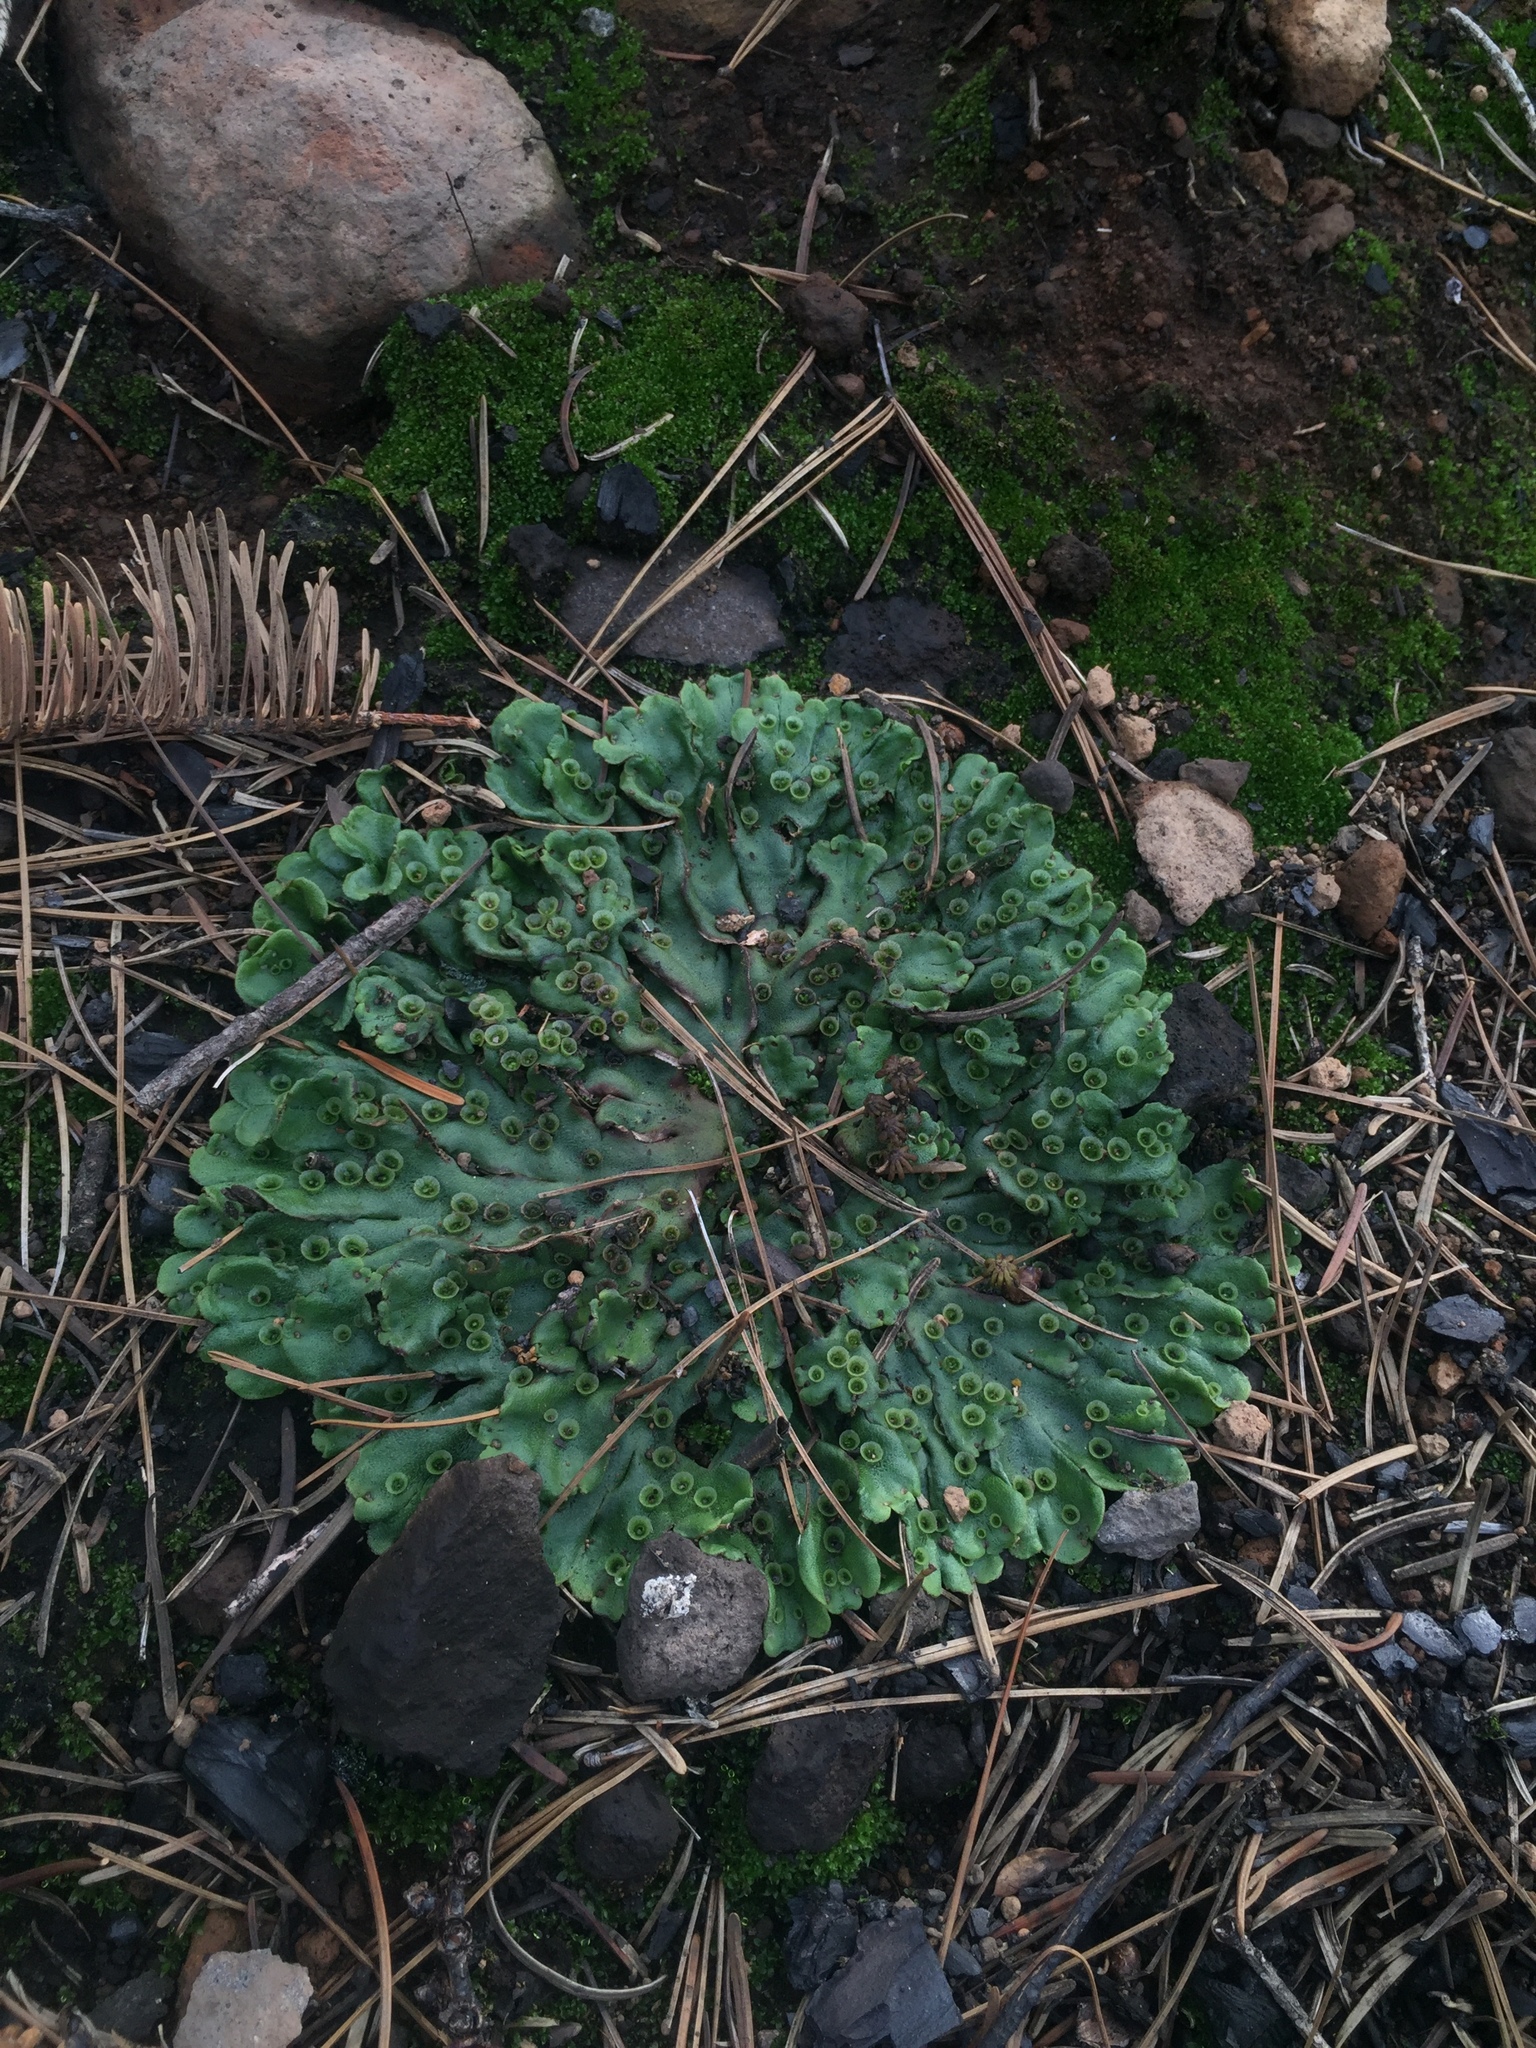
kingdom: Plantae
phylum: Marchantiophyta
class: Marchantiopsida
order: Marchantiales
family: Marchantiaceae
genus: Marchantia
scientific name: Marchantia polymorpha
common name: Common liverwort
